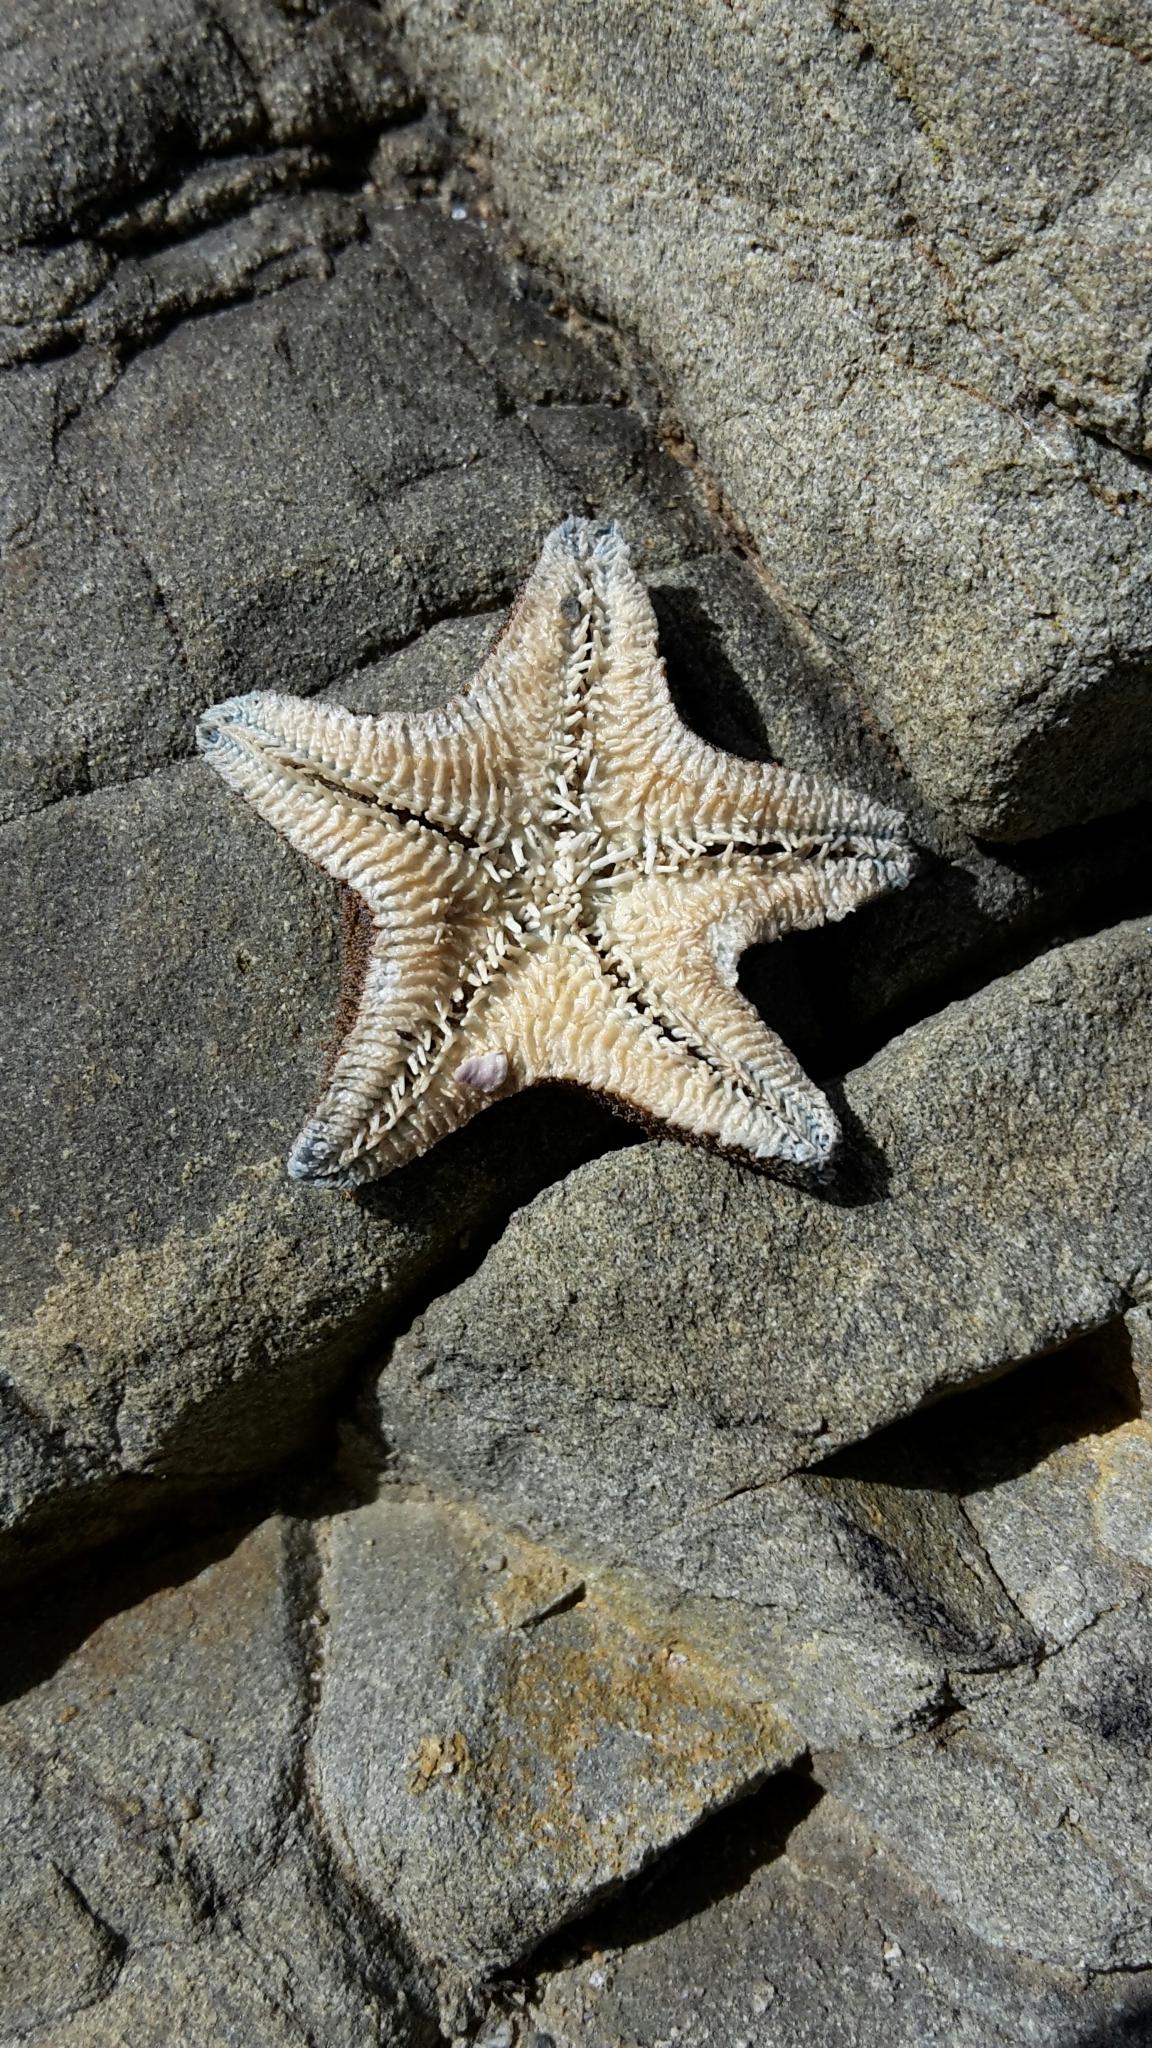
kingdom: Animalia
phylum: Echinodermata
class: Asteroidea
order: Valvatida
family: Asterinidae
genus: Patiriella
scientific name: Patiriella regularis
